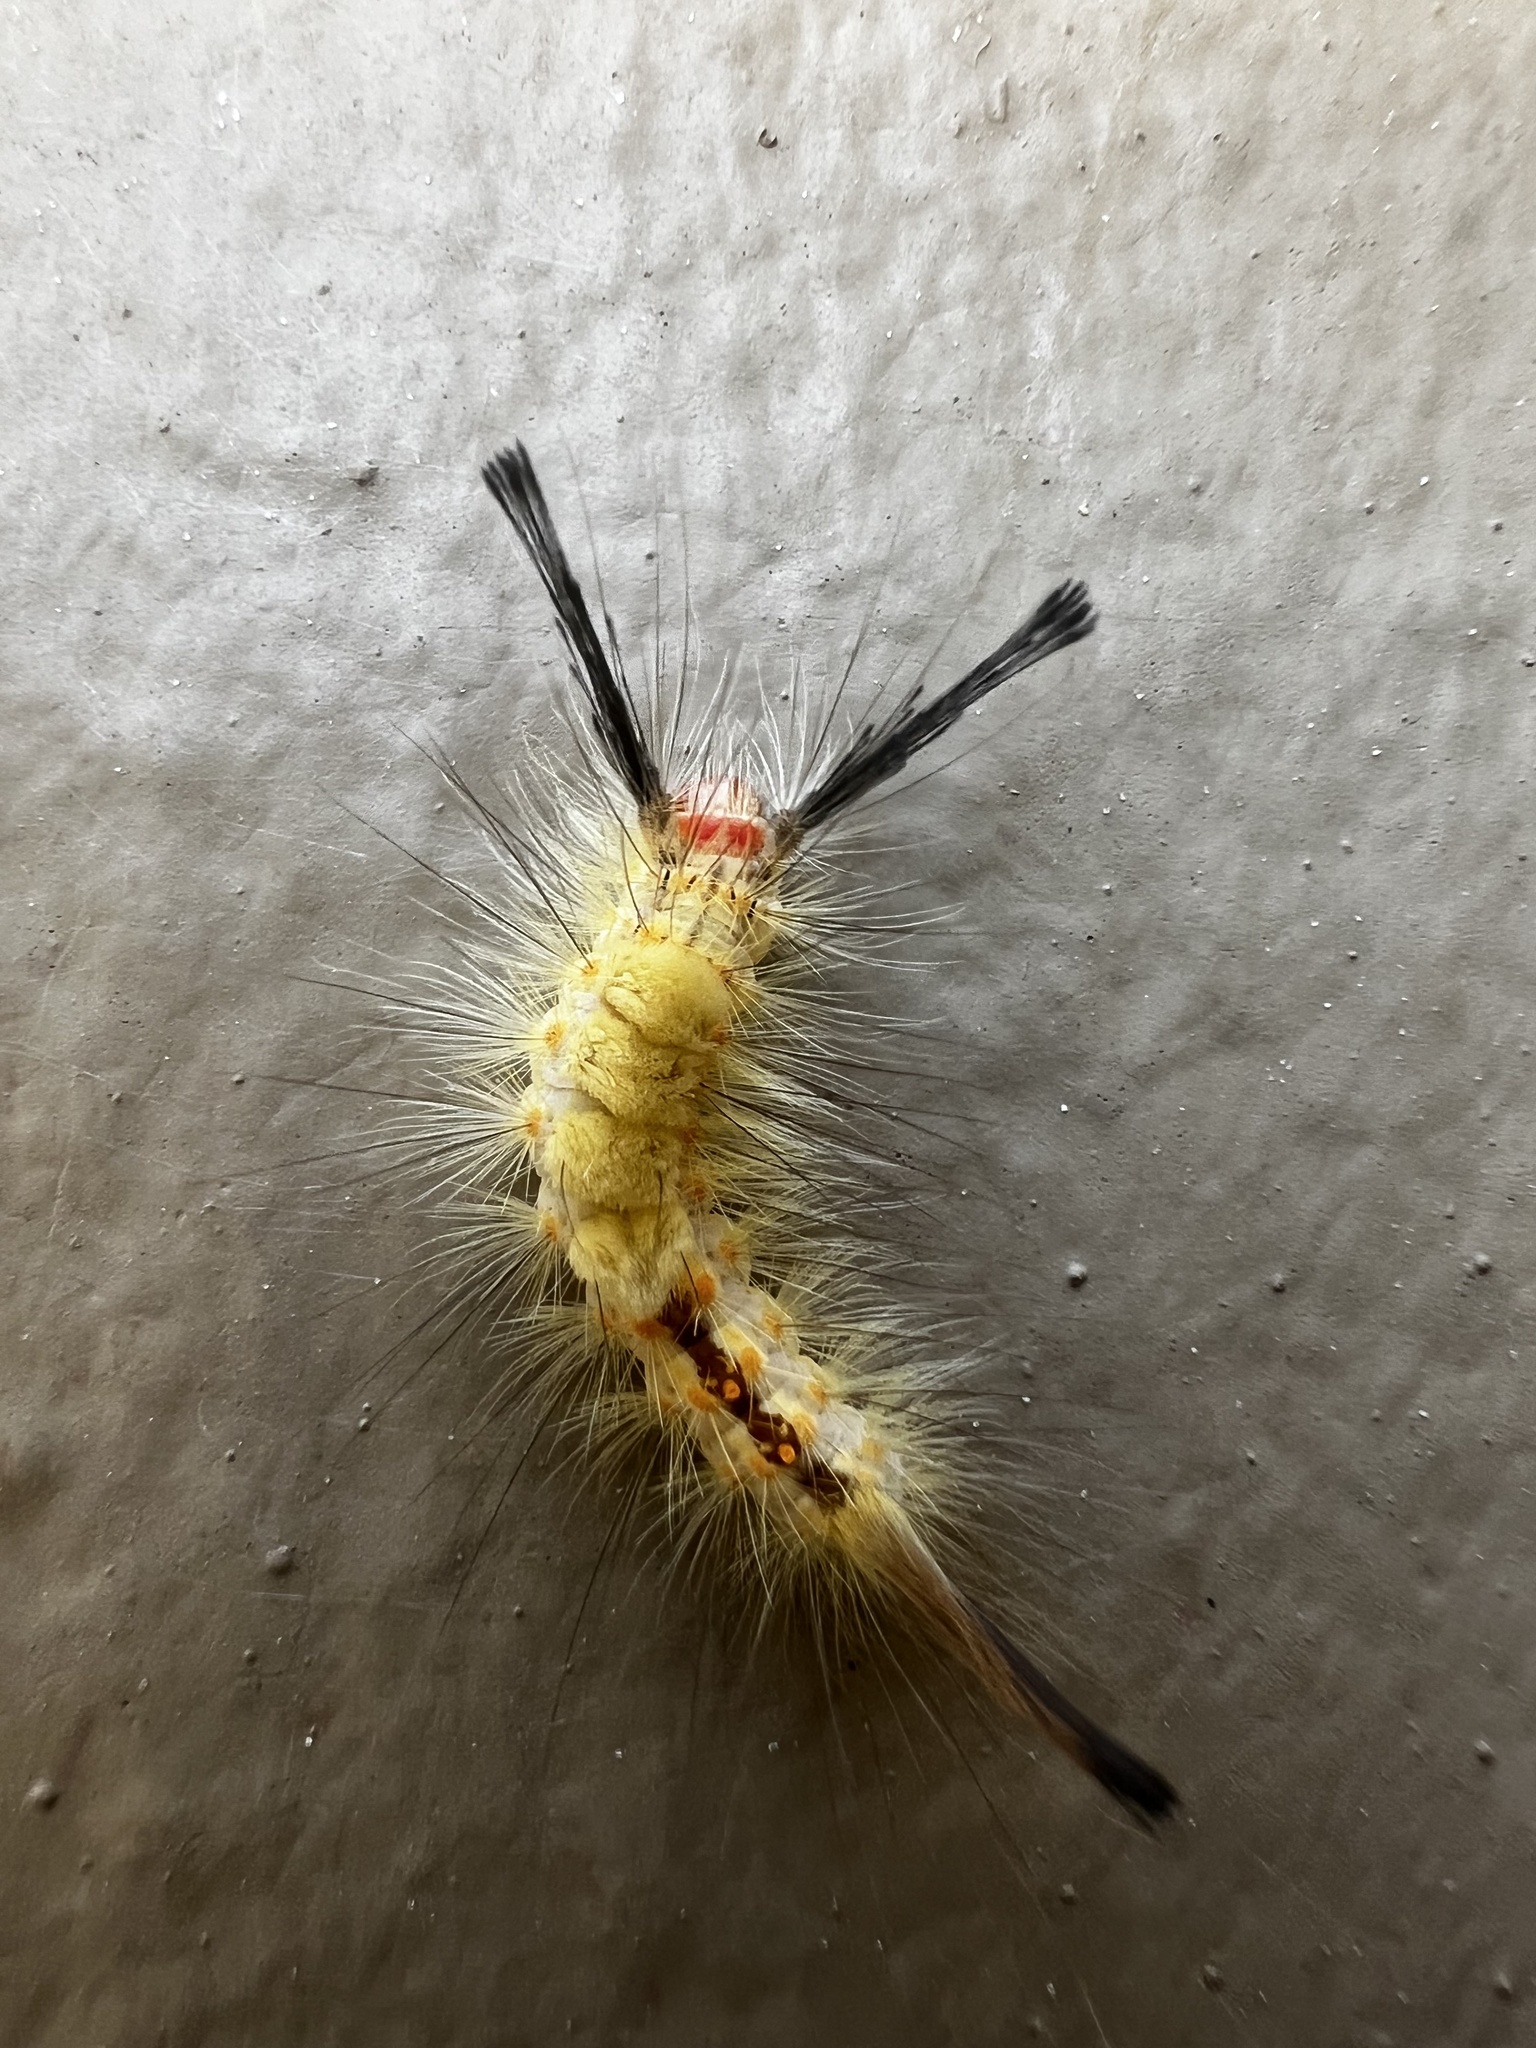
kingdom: Animalia
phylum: Arthropoda
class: Insecta
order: Lepidoptera
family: Erebidae
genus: Orgyia
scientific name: Orgyia detrita
